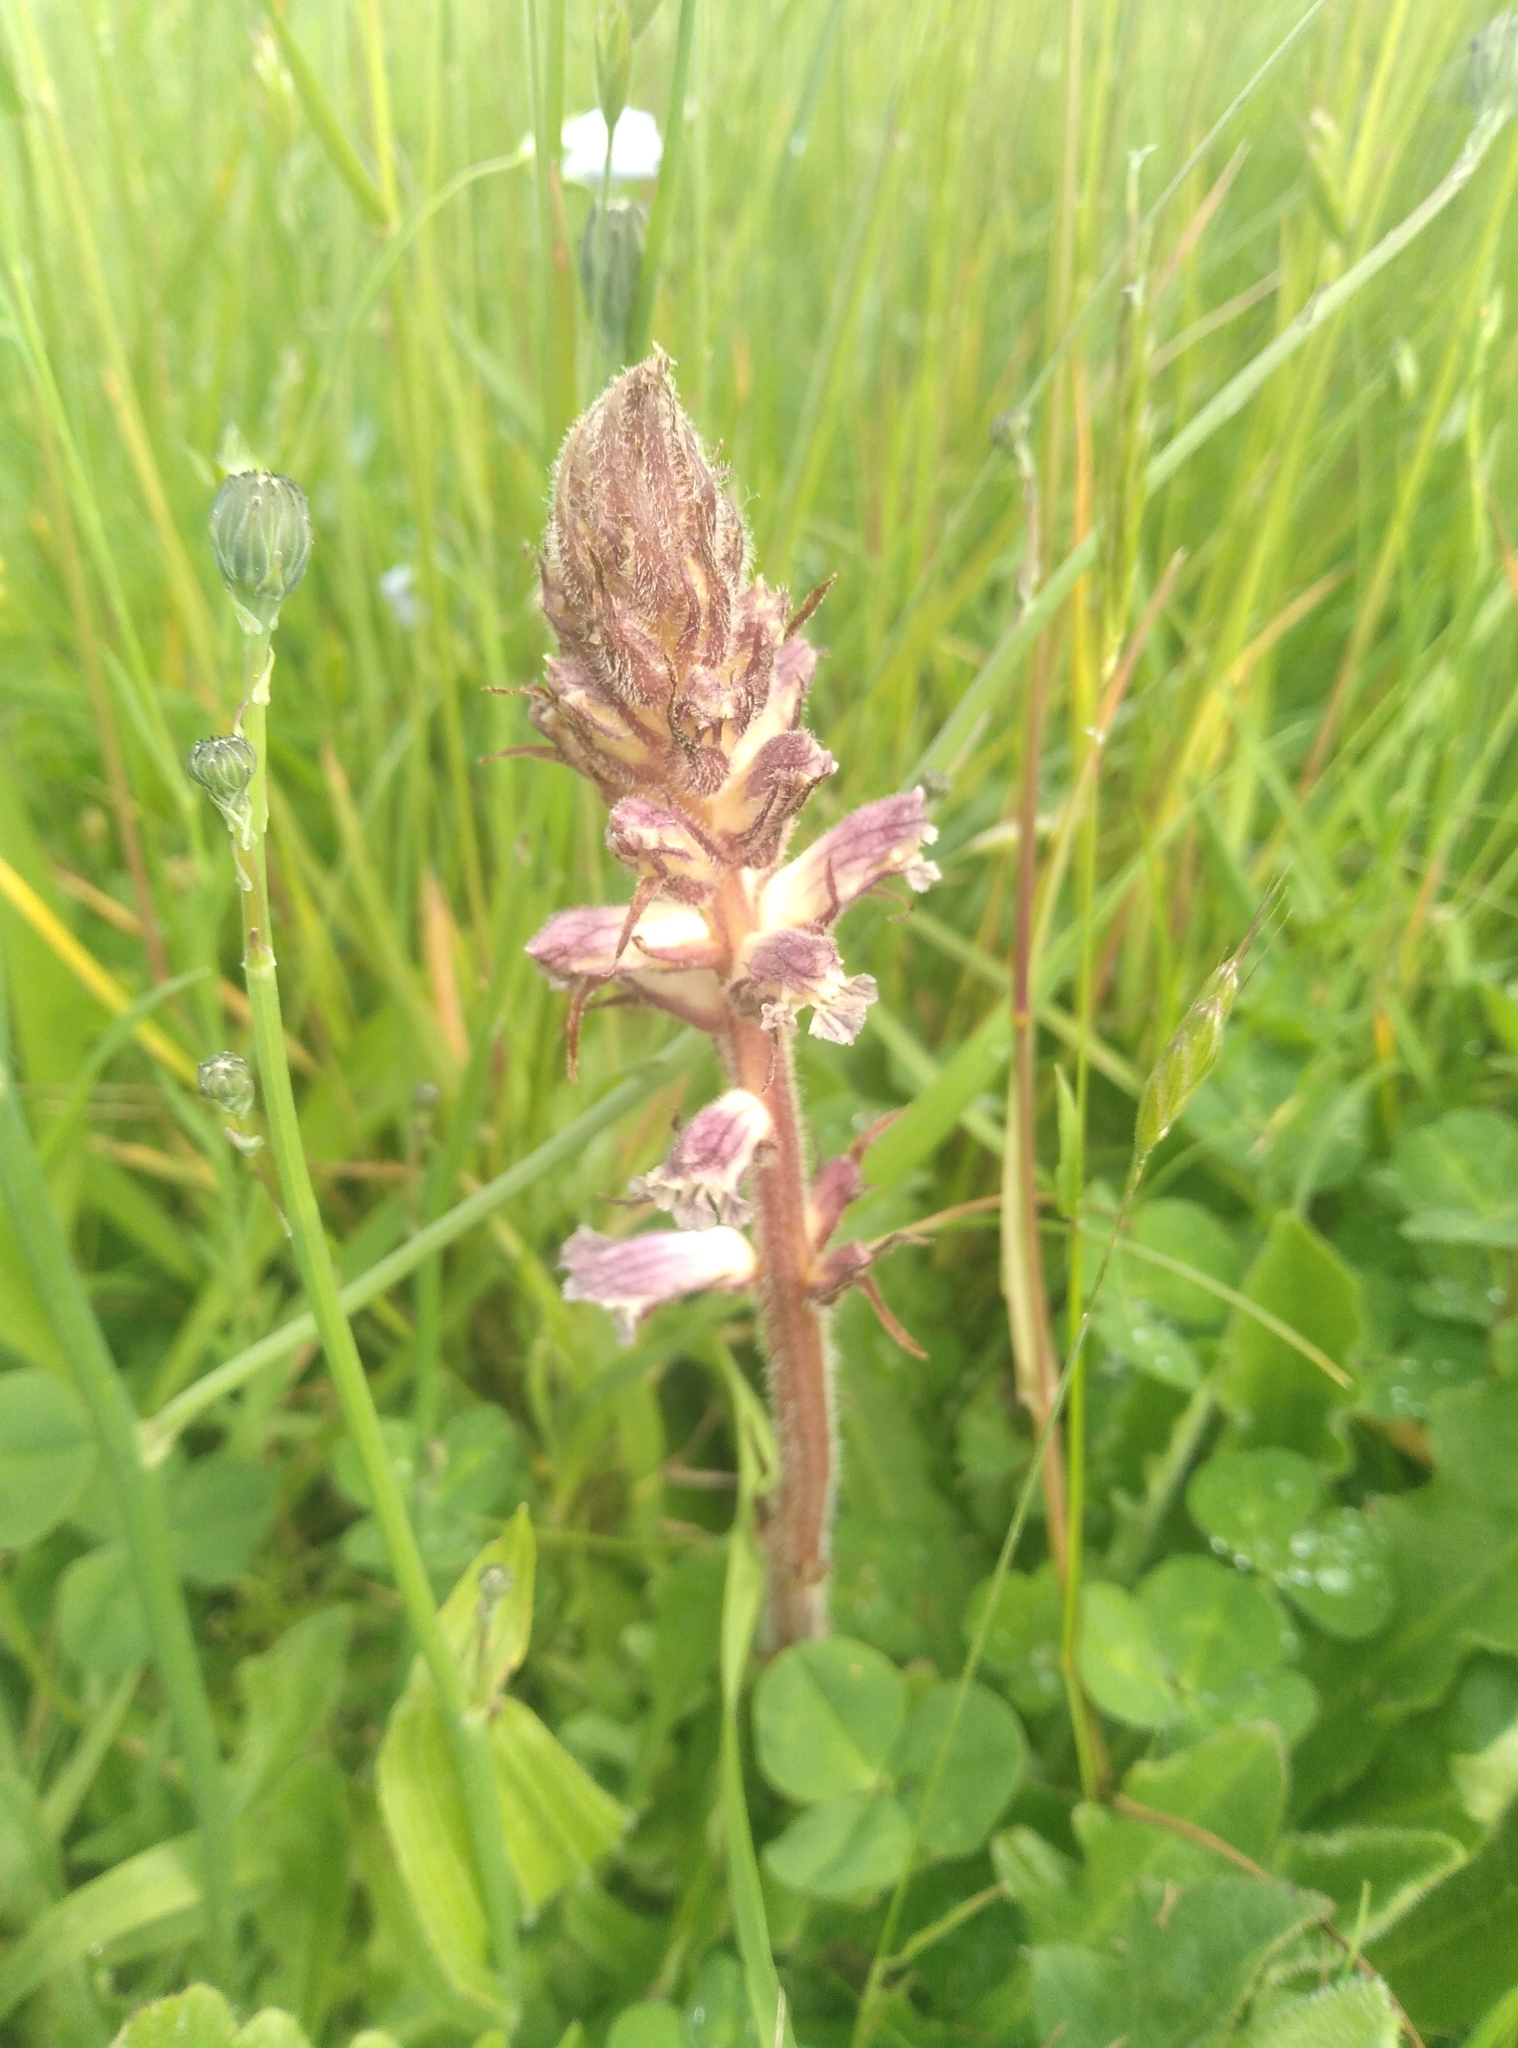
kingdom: Plantae
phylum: Tracheophyta
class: Magnoliopsida
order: Lamiales
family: Orobanchaceae
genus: Orobanche
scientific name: Orobanche minor
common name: Common broomrape
